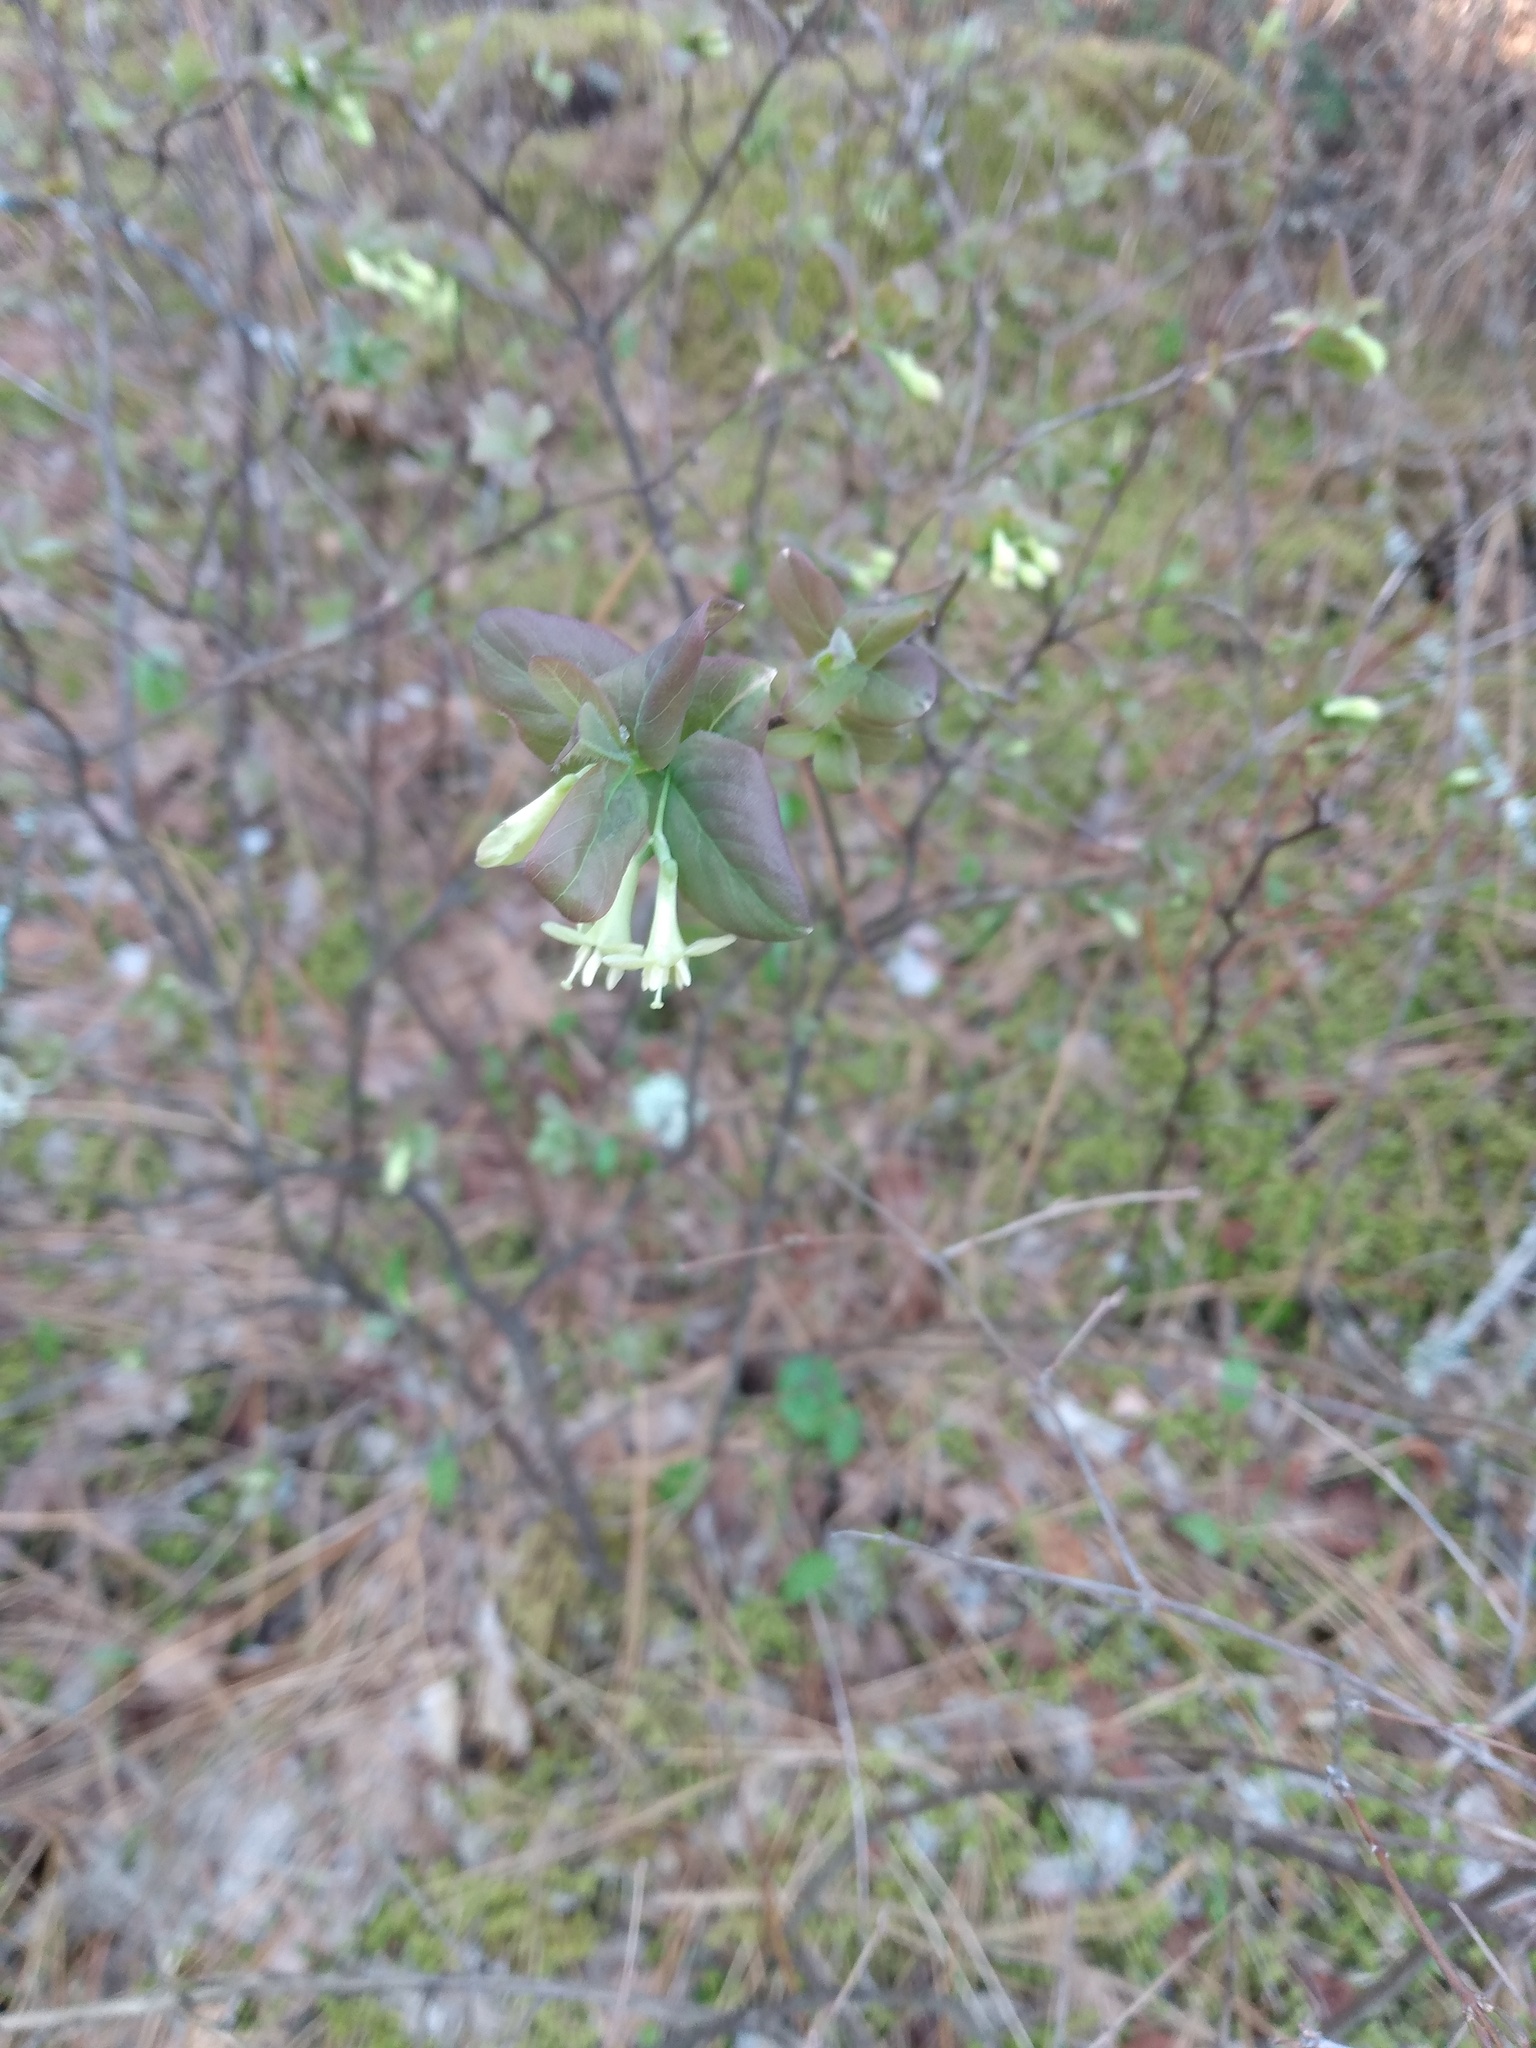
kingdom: Plantae
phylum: Tracheophyta
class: Magnoliopsida
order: Dipsacales
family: Caprifoliaceae
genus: Lonicera
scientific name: Lonicera utahensis
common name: Utah honeysuckle
